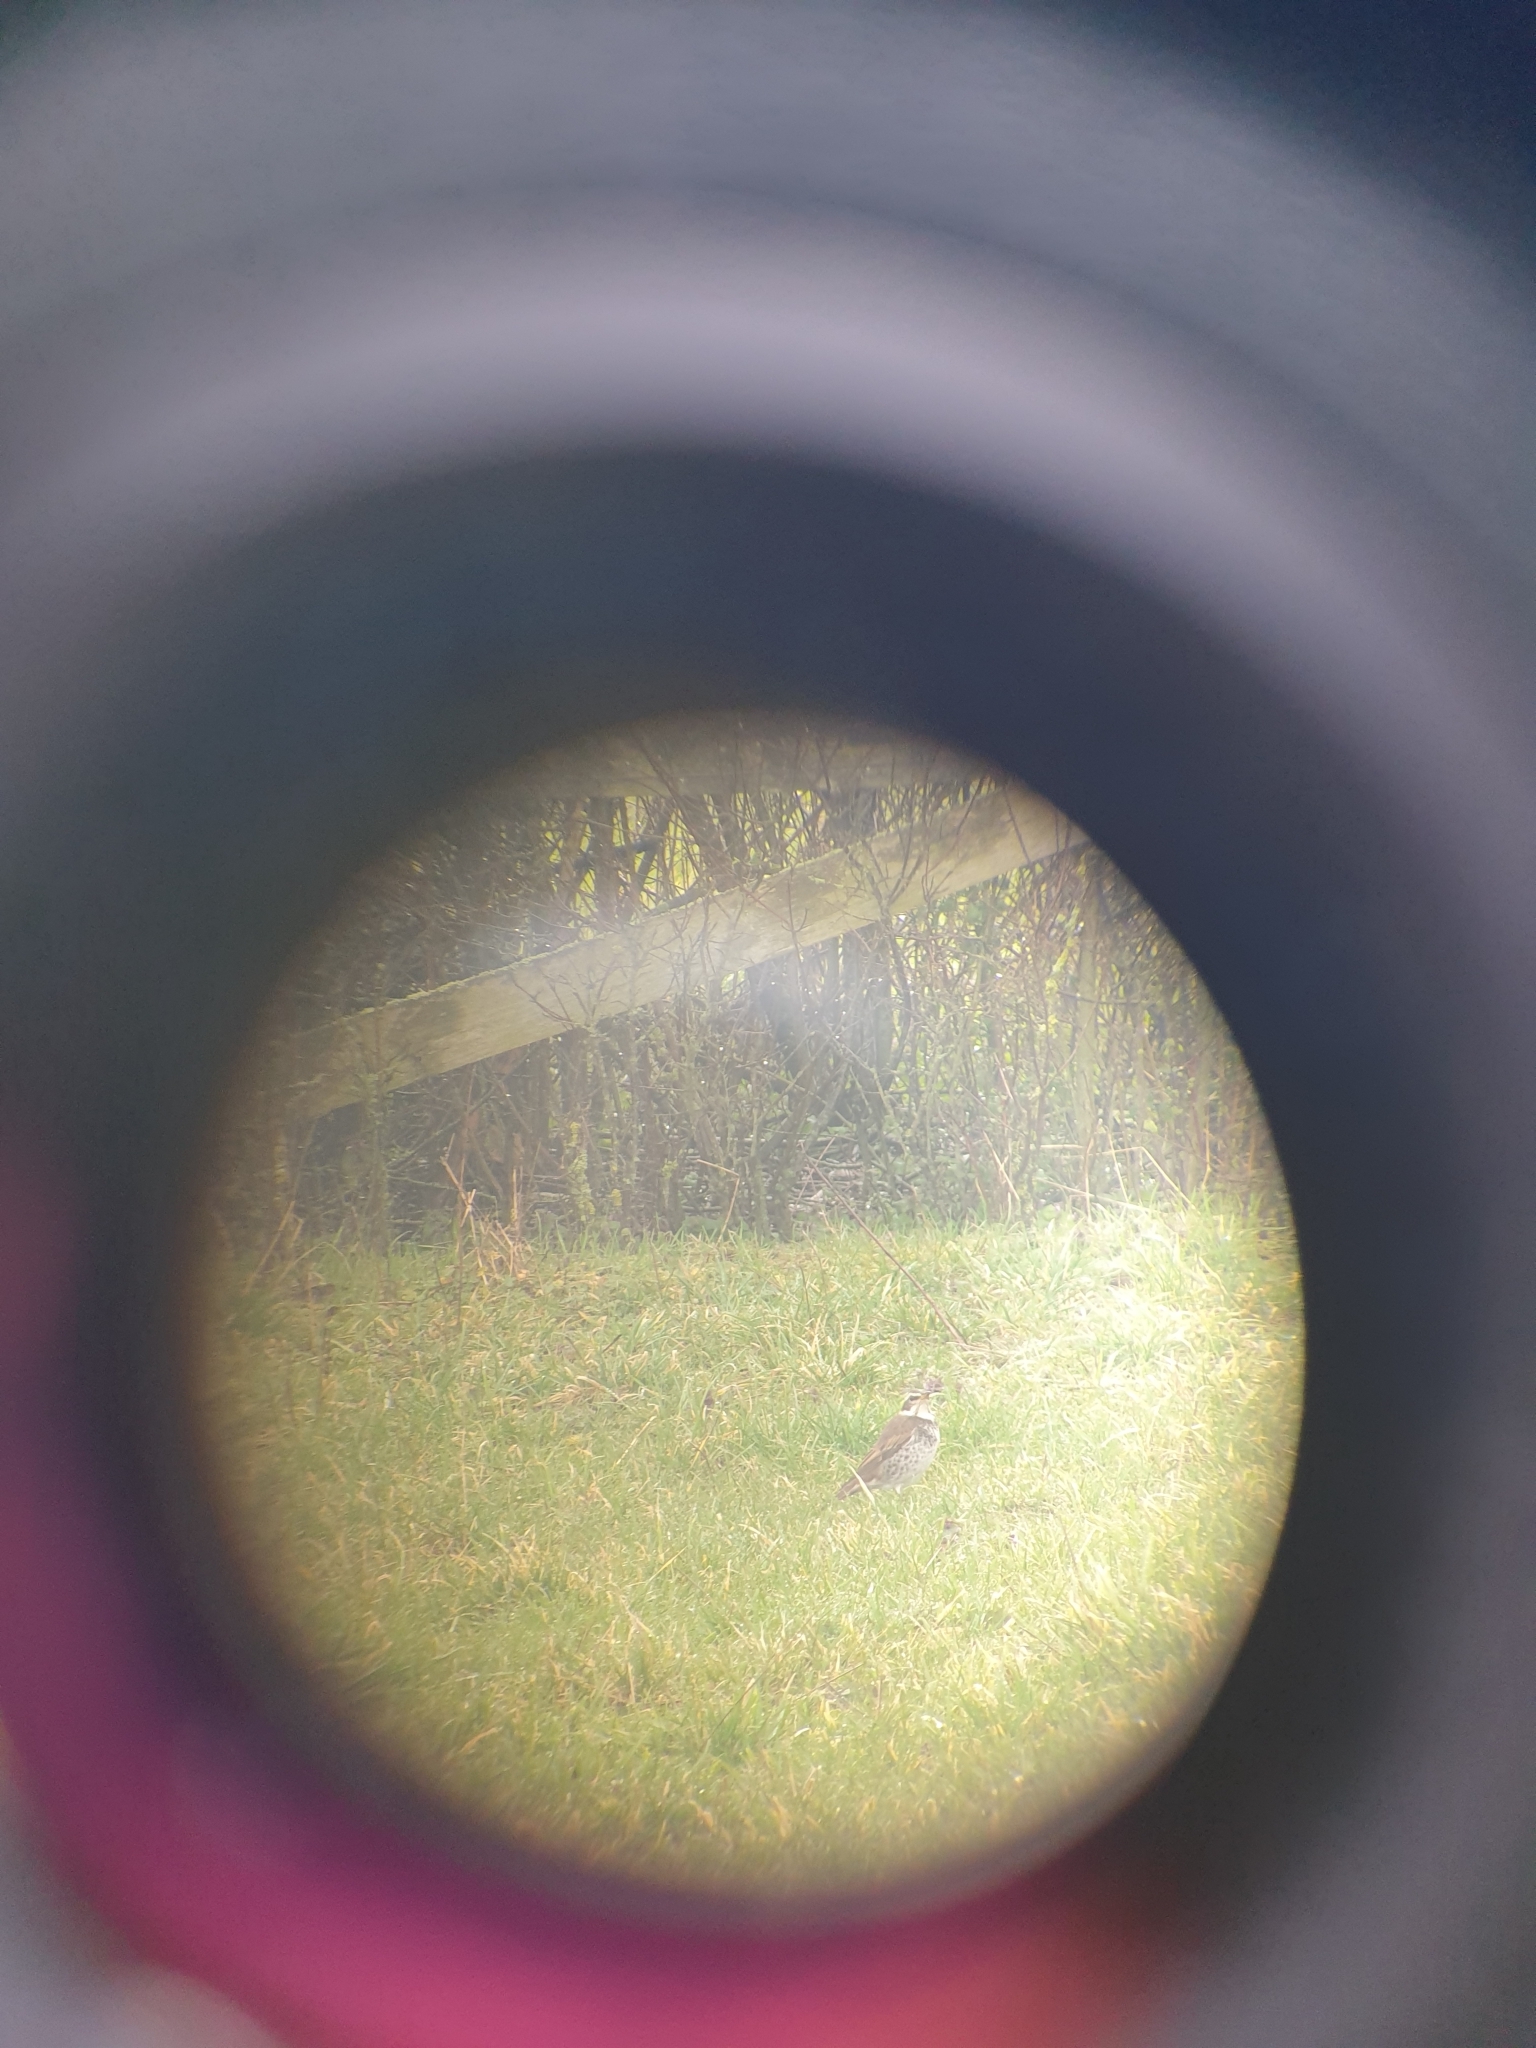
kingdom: Animalia
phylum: Chordata
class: Aves
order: Passeriformes
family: Turdidae
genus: Turdus
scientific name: Turdus eunomus
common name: Dusky thrush
